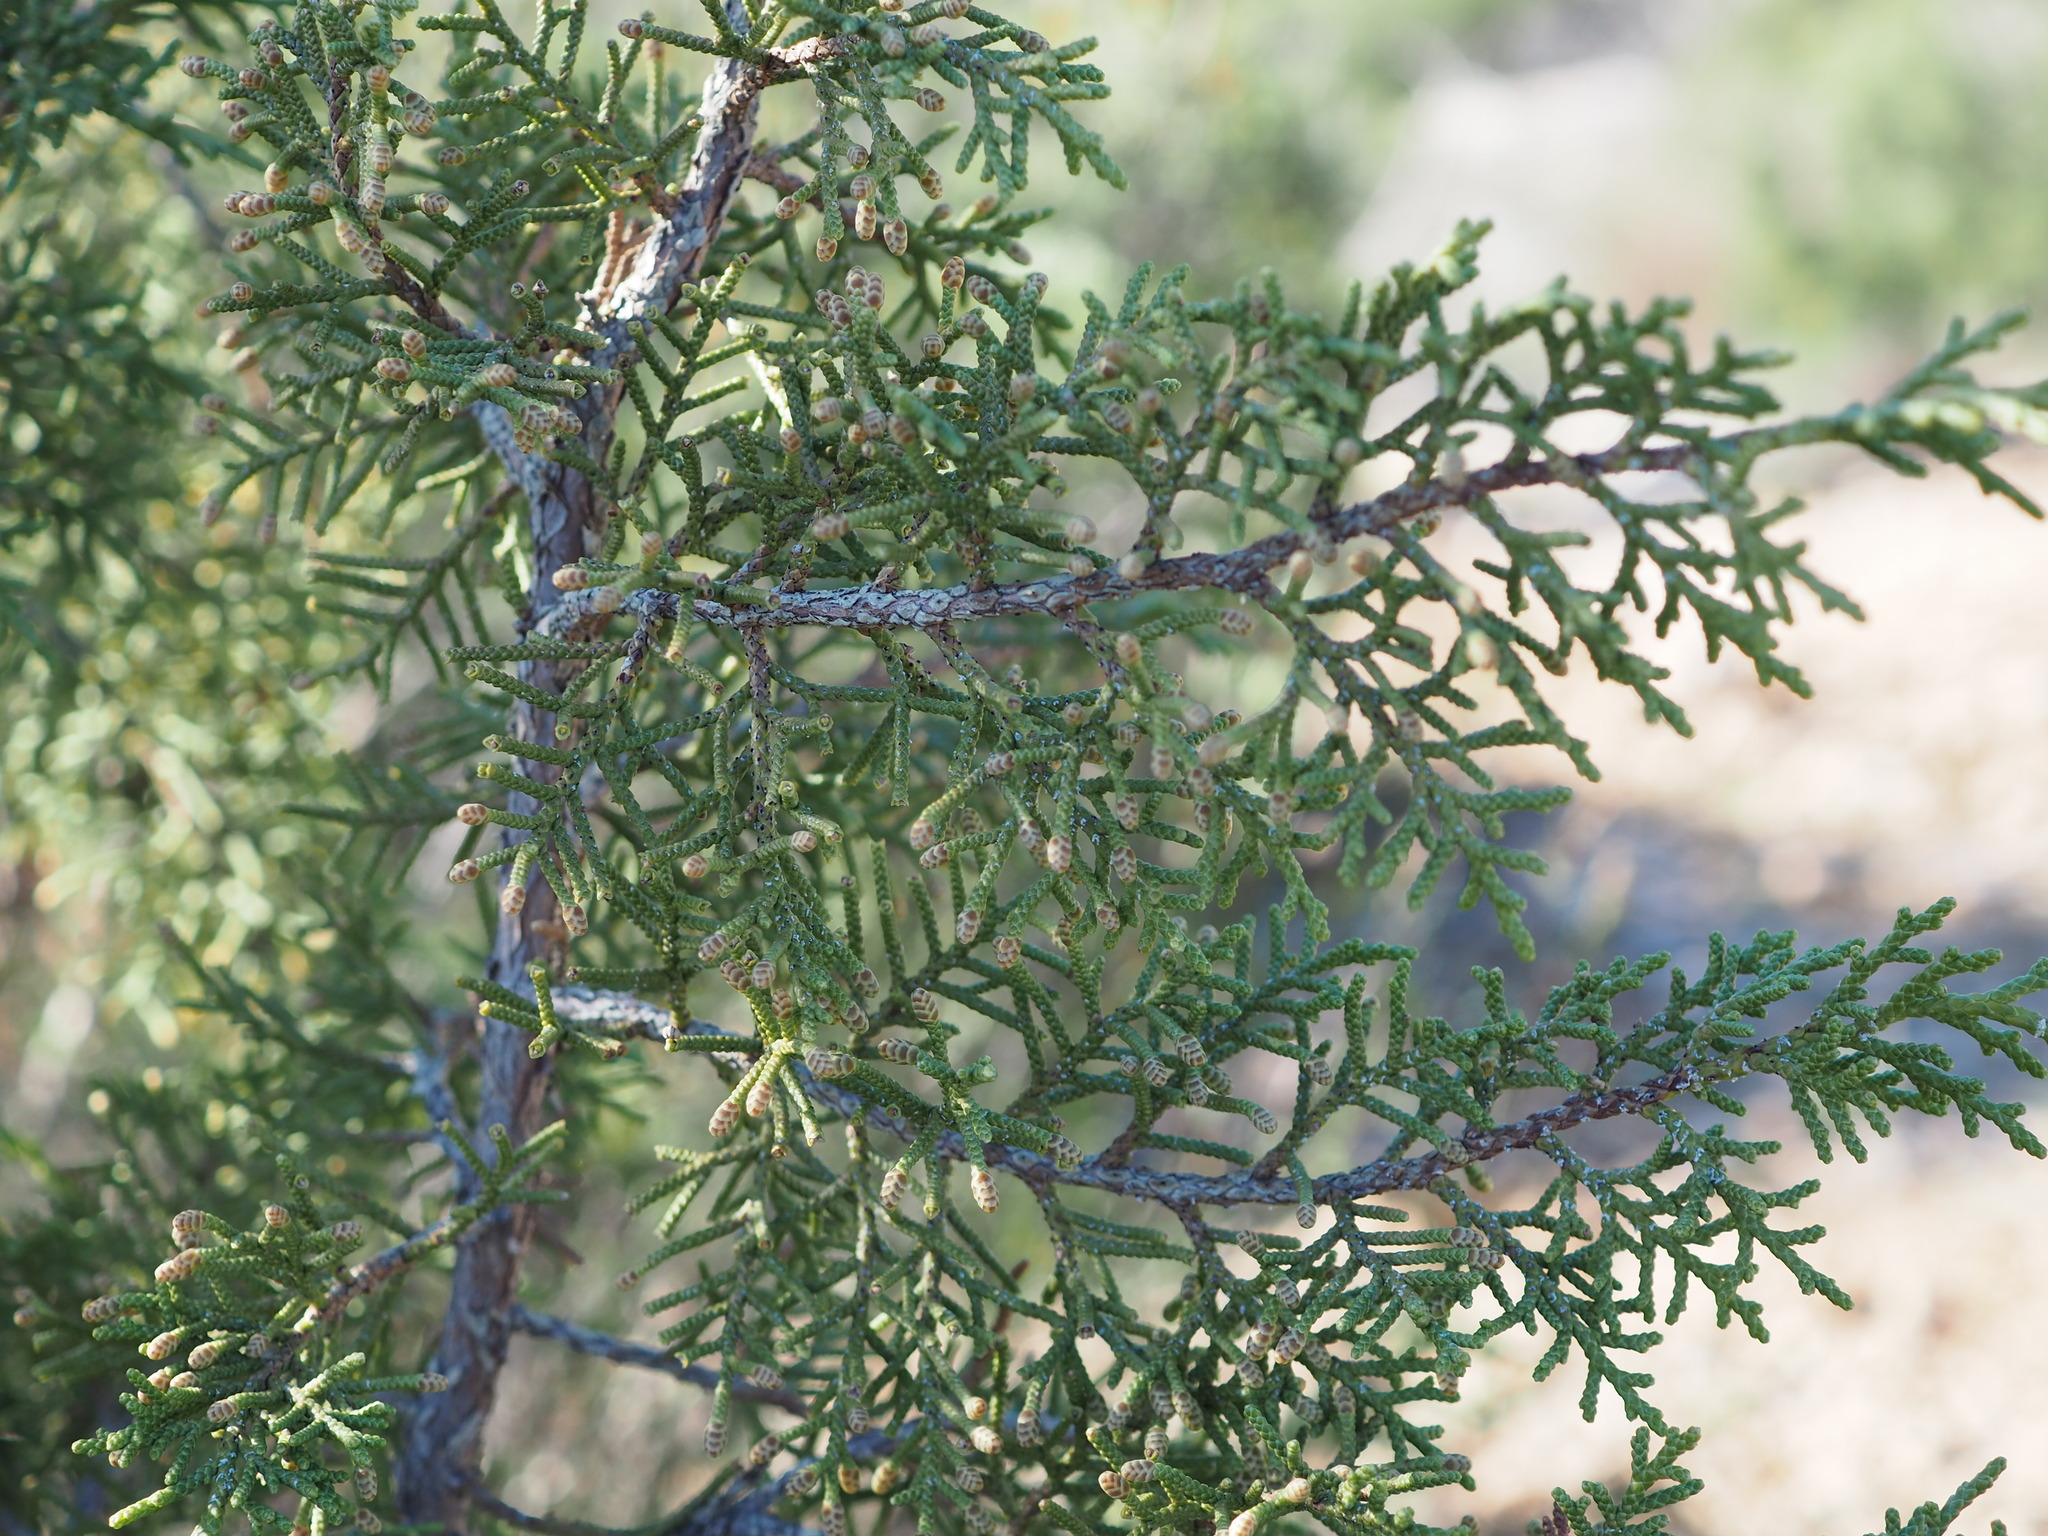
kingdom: Plantae
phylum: Tracheophyta
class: Pinopsida
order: Pinales
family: Cupressaceae
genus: Juniperus
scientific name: Juniperus phoenicea
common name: Phoenician juniper
